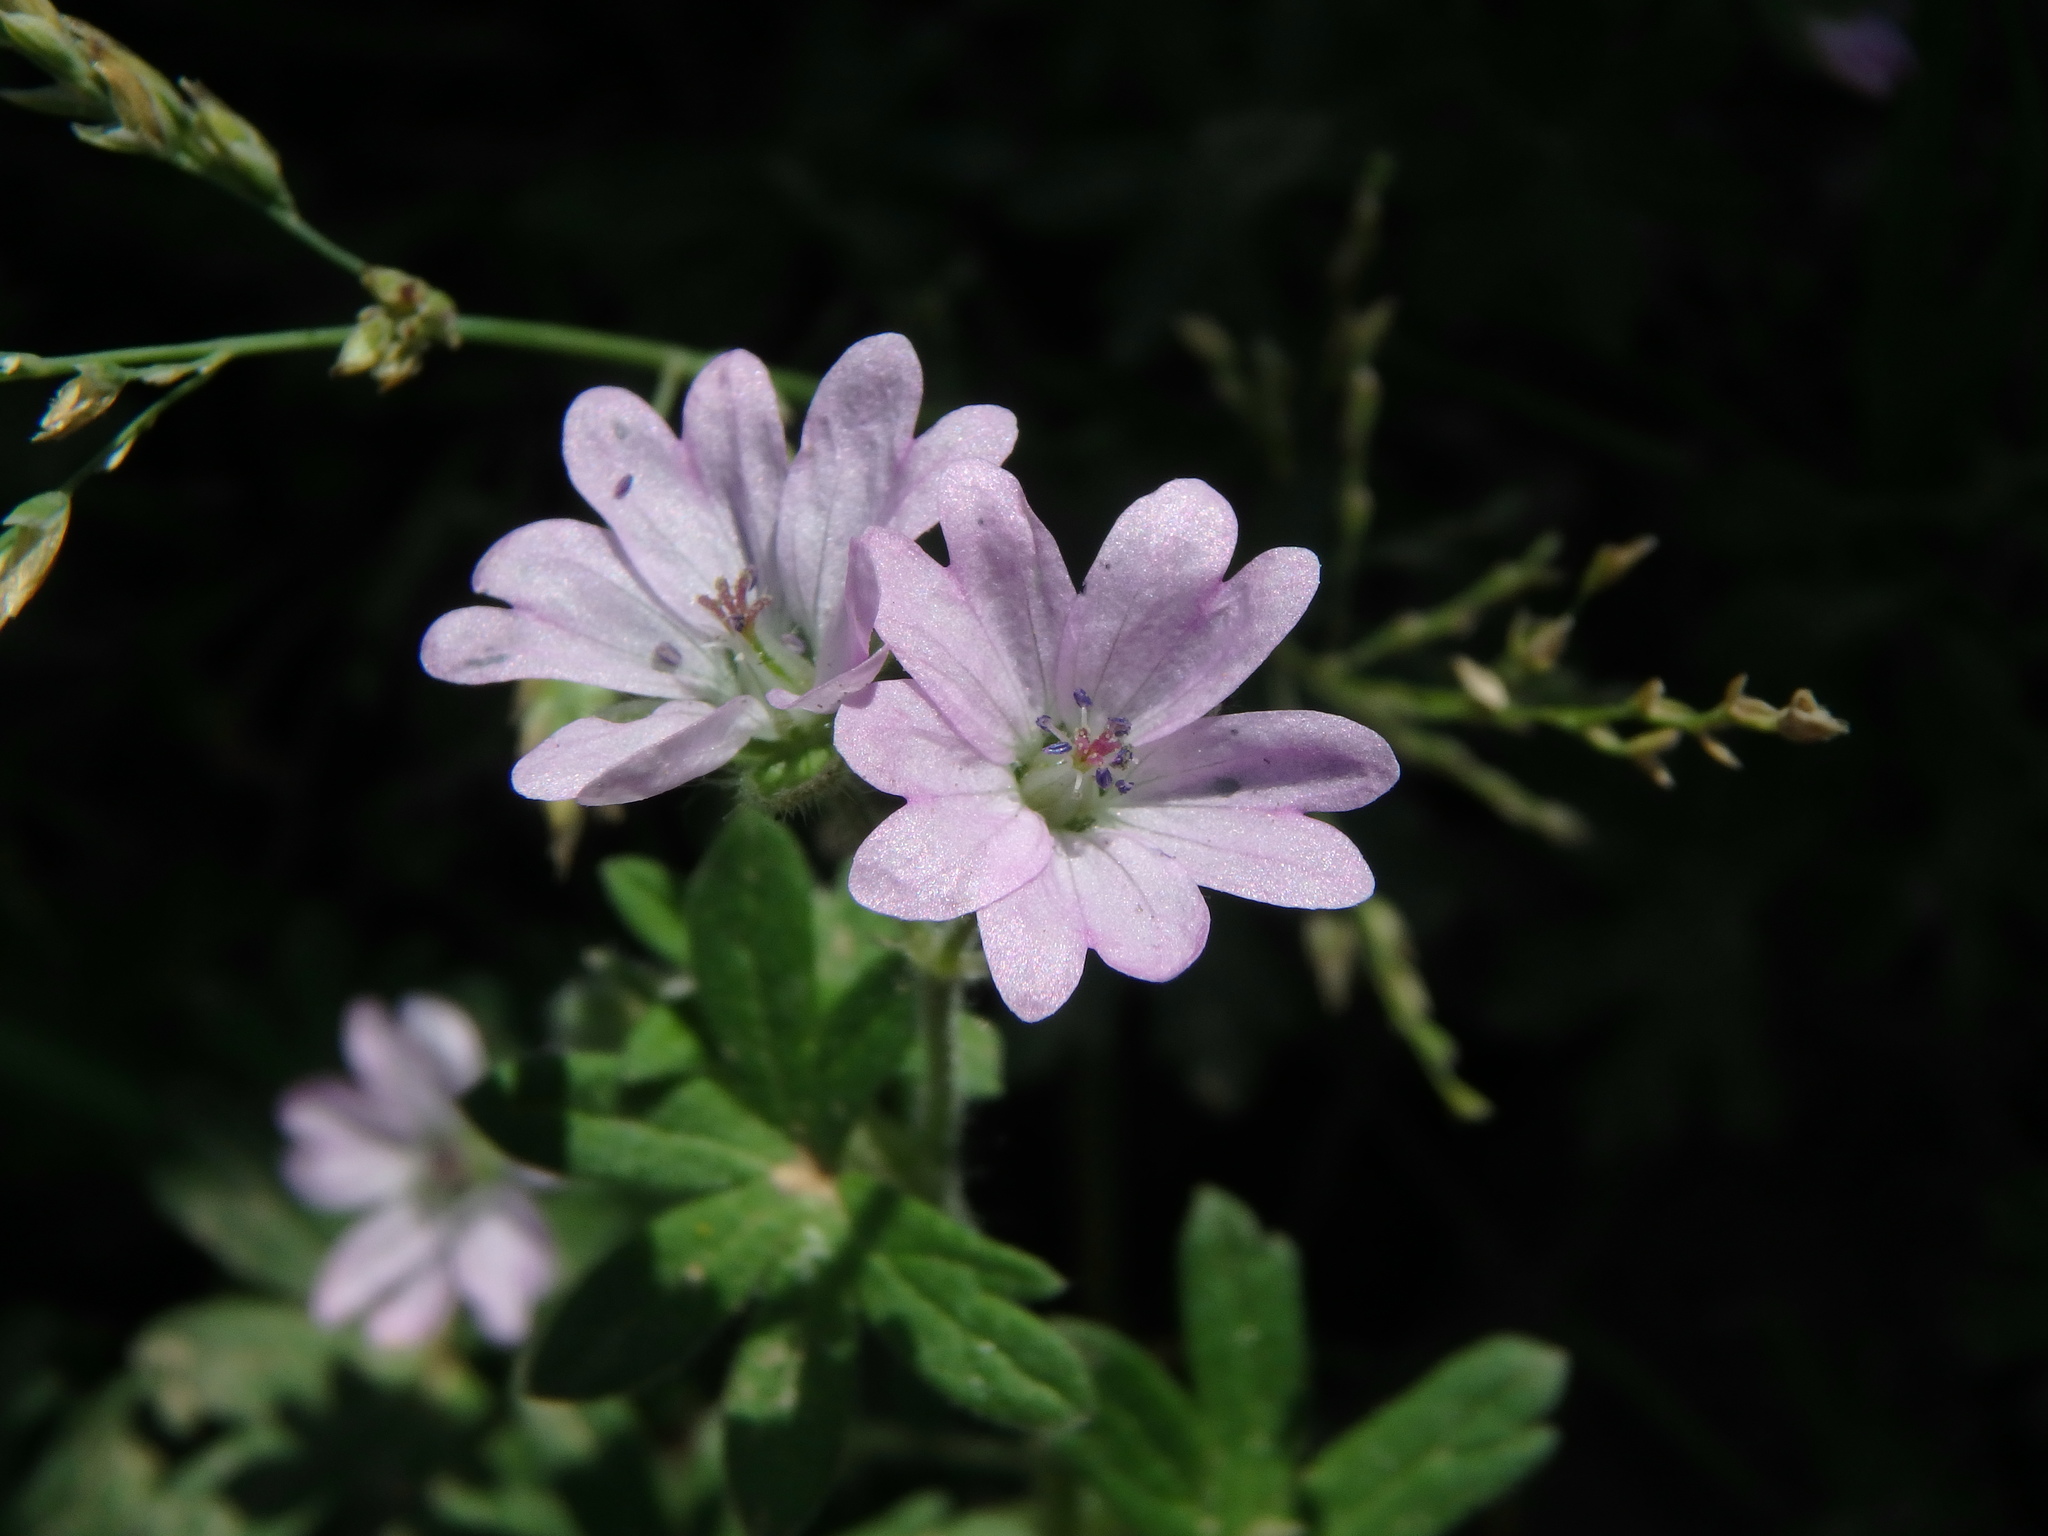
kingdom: Plantae
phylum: Tracheophyta
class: Magnoliopsida
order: Geraniales
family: Geraniaceae
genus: Geranium
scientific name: Geranium molle
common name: Dove's-foot crane's-bill
